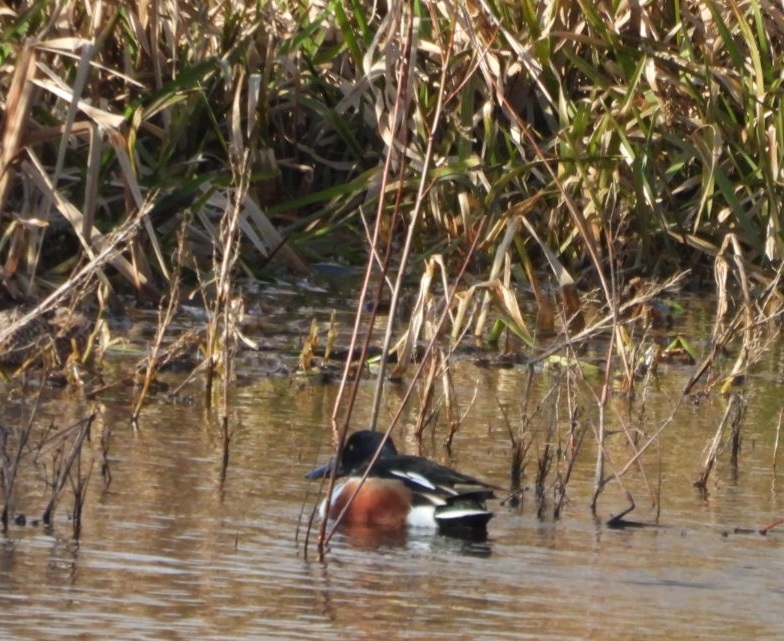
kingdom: Animalia
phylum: Chordata
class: Aves
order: Anseriformes
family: Anatidae
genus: Spatula
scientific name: Spatula clypeata
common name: Northern shoveler
